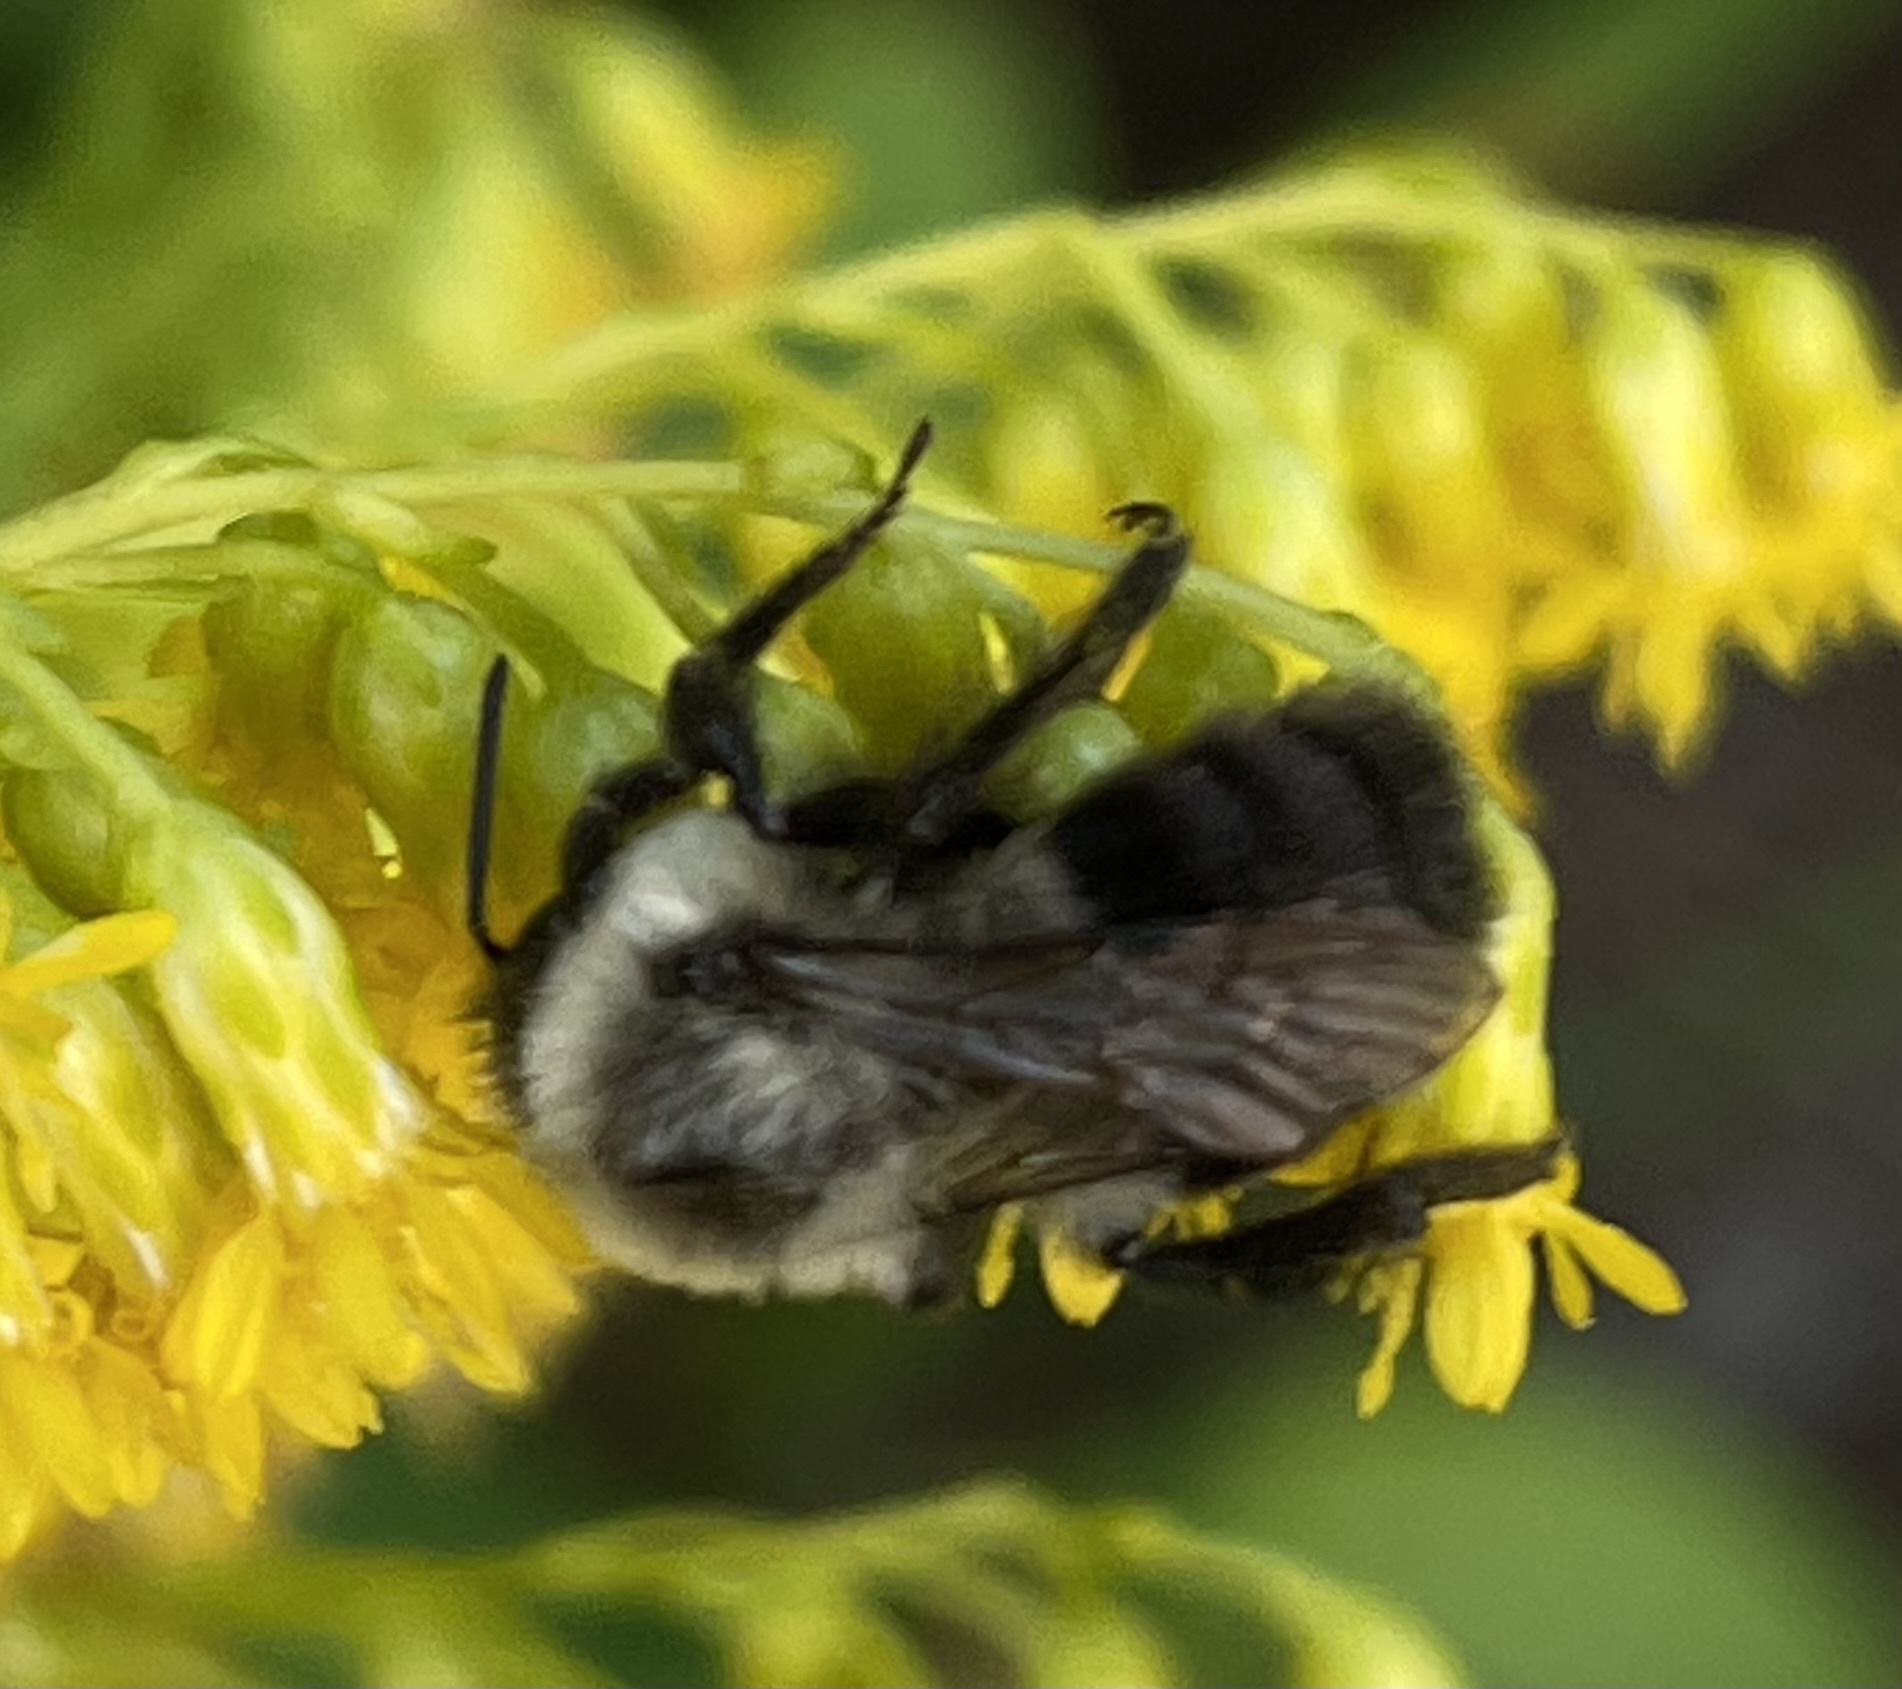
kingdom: Animalia
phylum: Arthropoda
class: Insecta
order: Hymenoptera
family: Apidae
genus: Bombus
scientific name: Bombus impatiens
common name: Common eastern bumble bee
